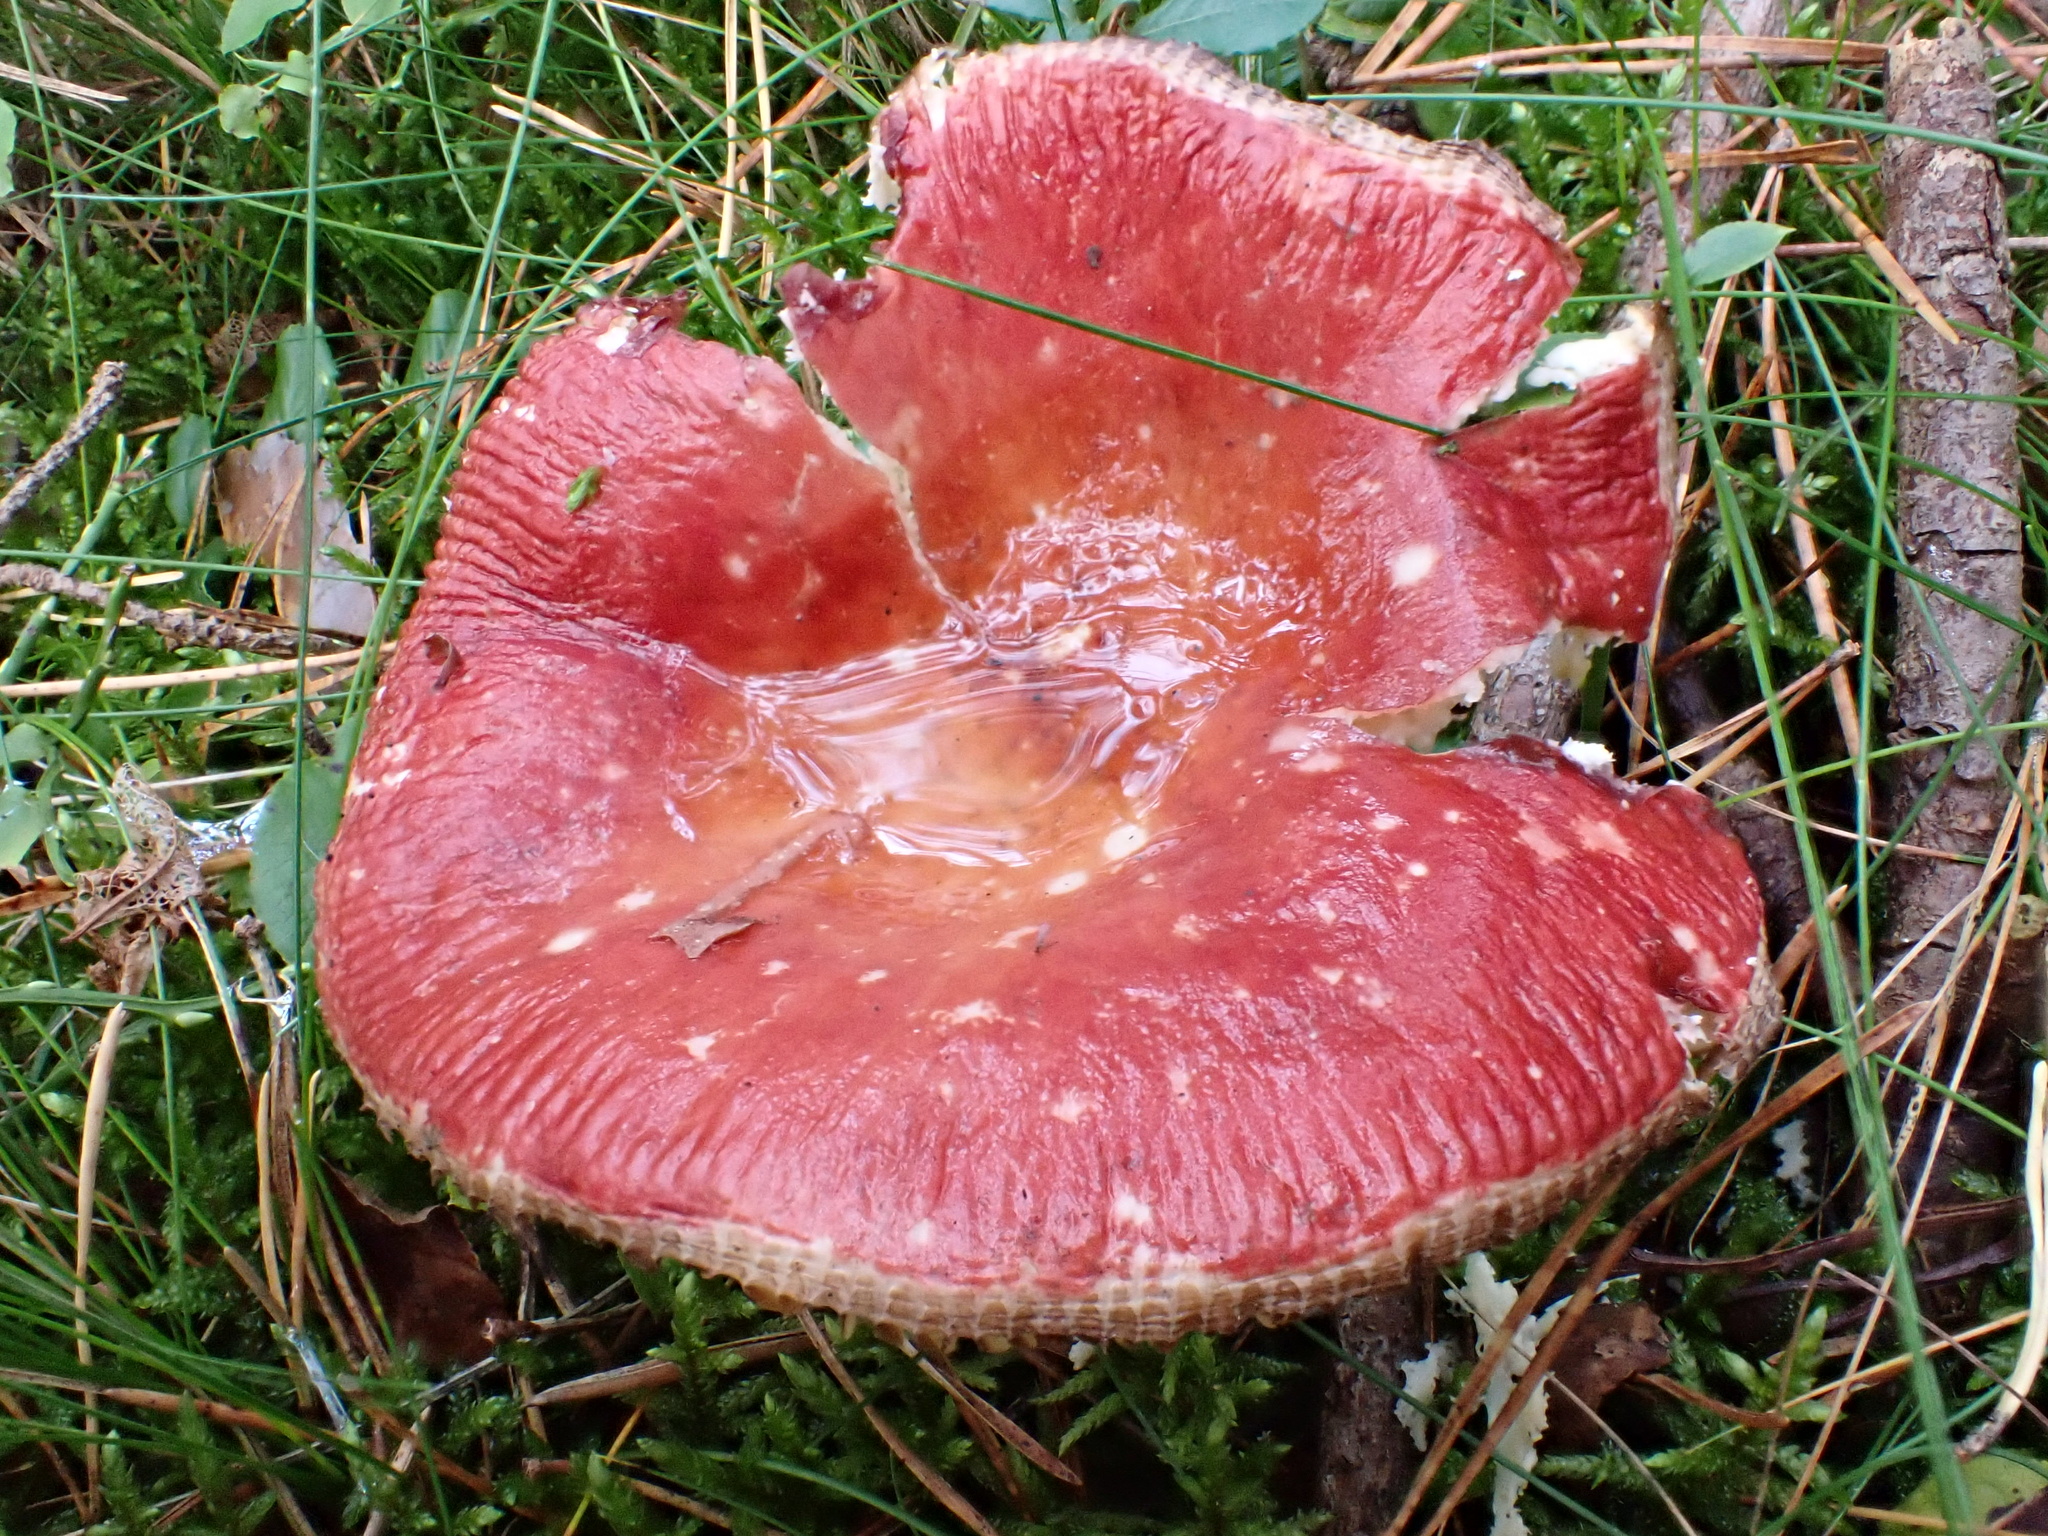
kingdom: Fungi
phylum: Basidiomycota
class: Agaricomycetes
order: Russulales
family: Russulaceae
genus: Russula
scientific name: Russula
